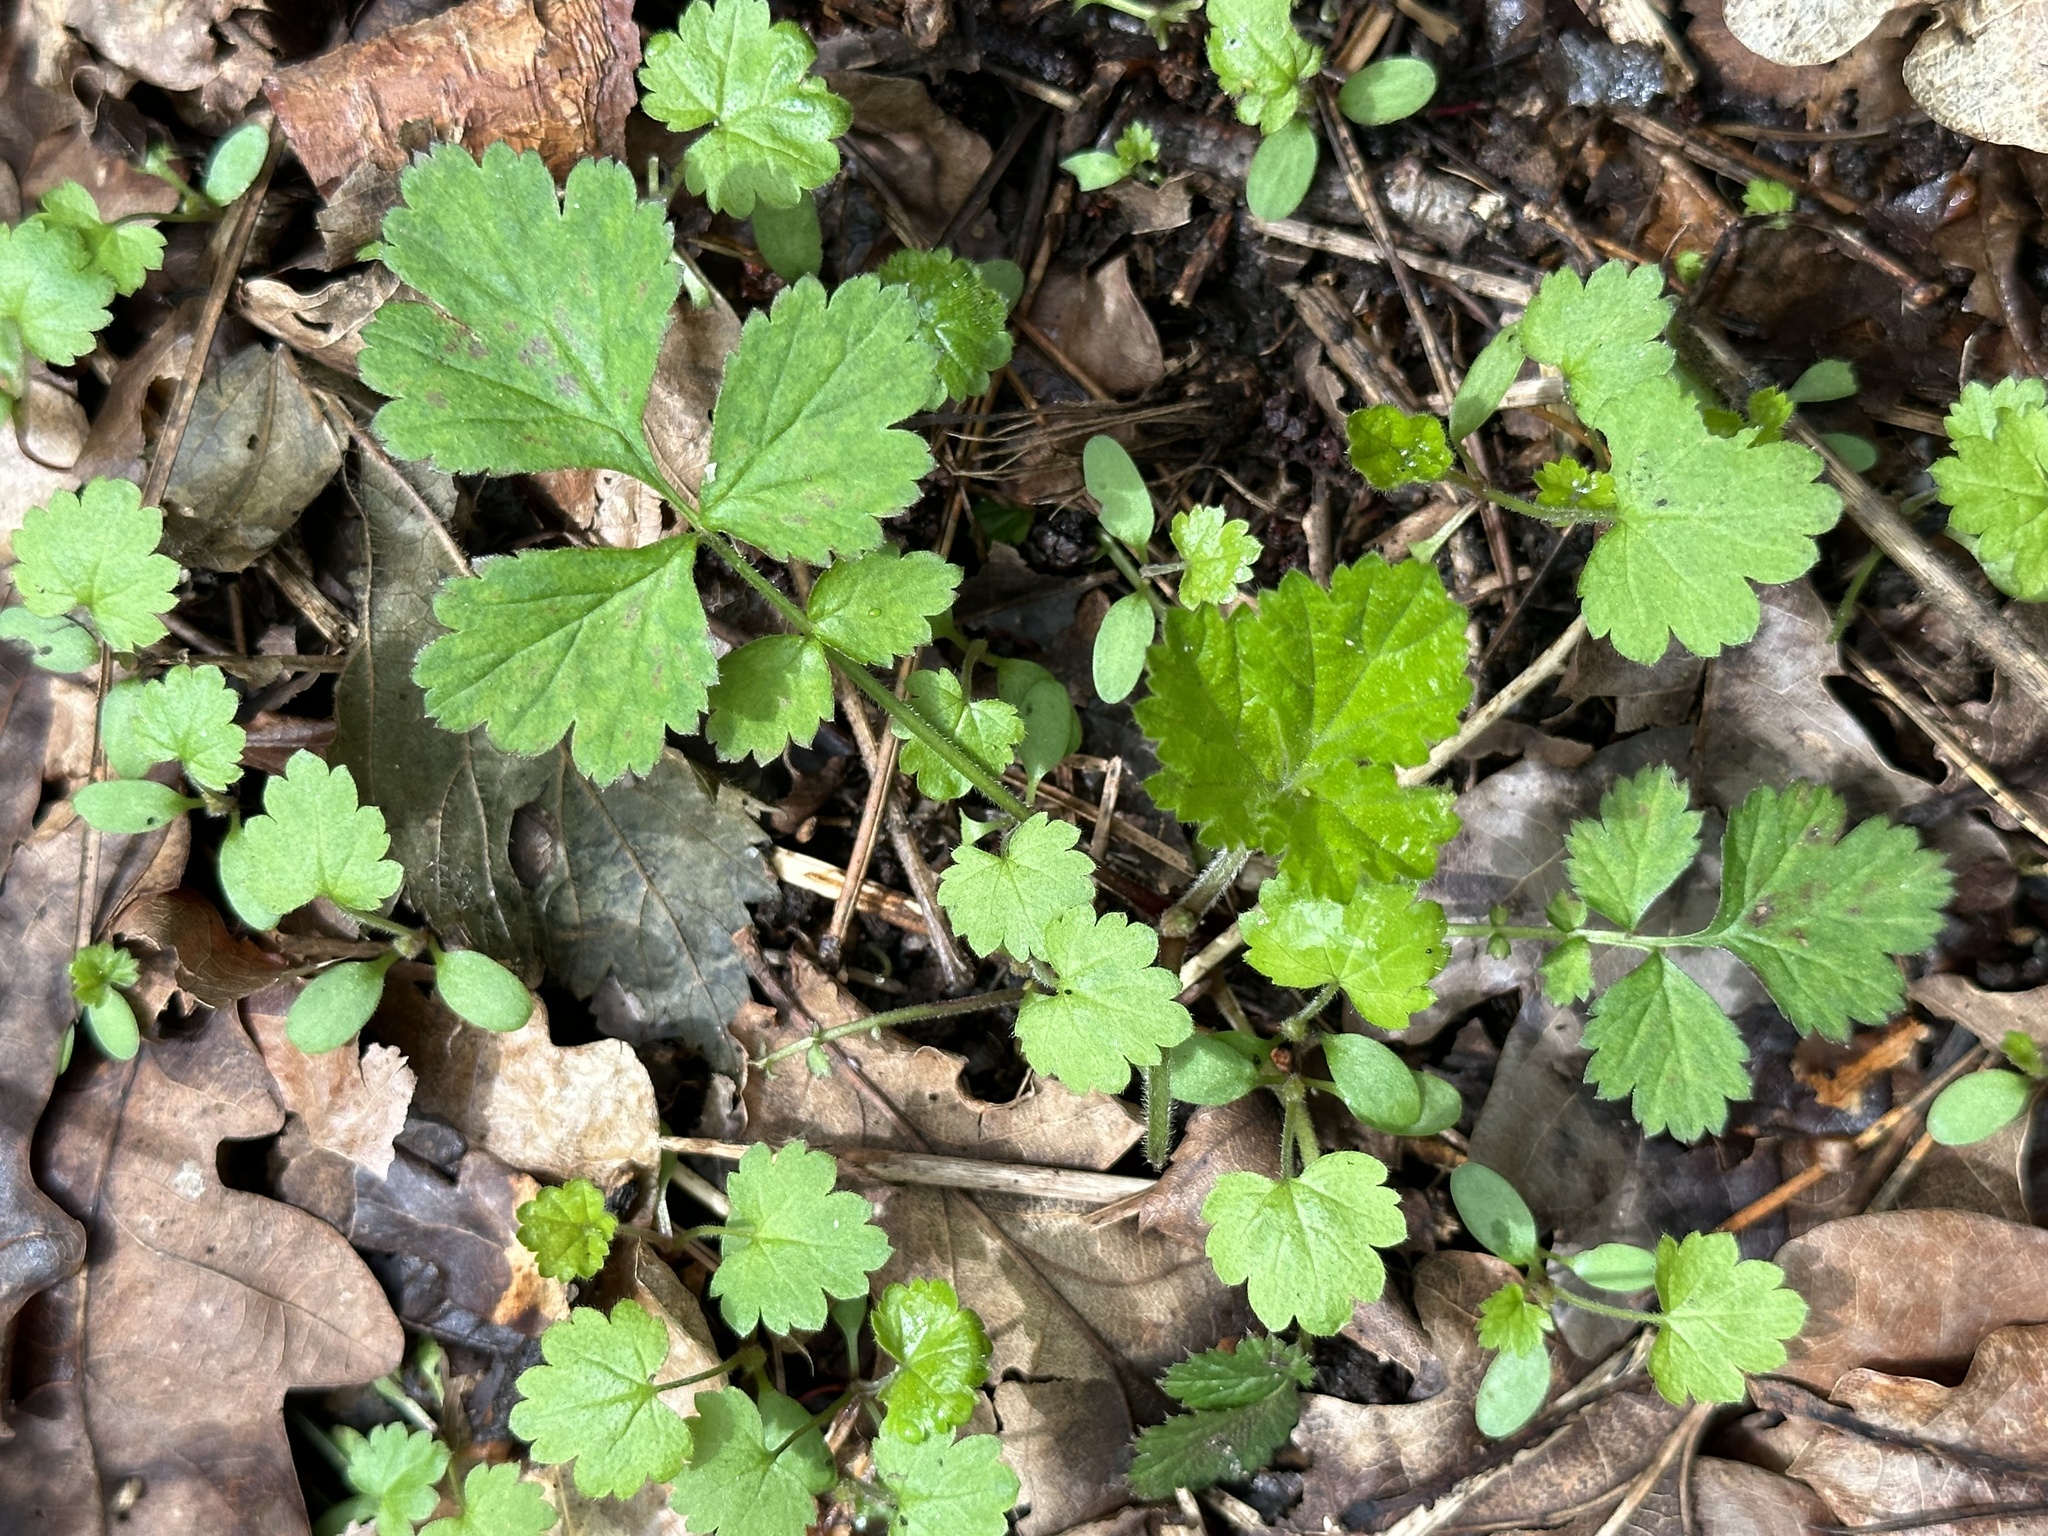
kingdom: Plantae
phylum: Tracheophyta
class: Magnoliopsida
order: Rosales
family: Rosaceae
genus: Geum
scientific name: Geum urbanum
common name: Wood avens
